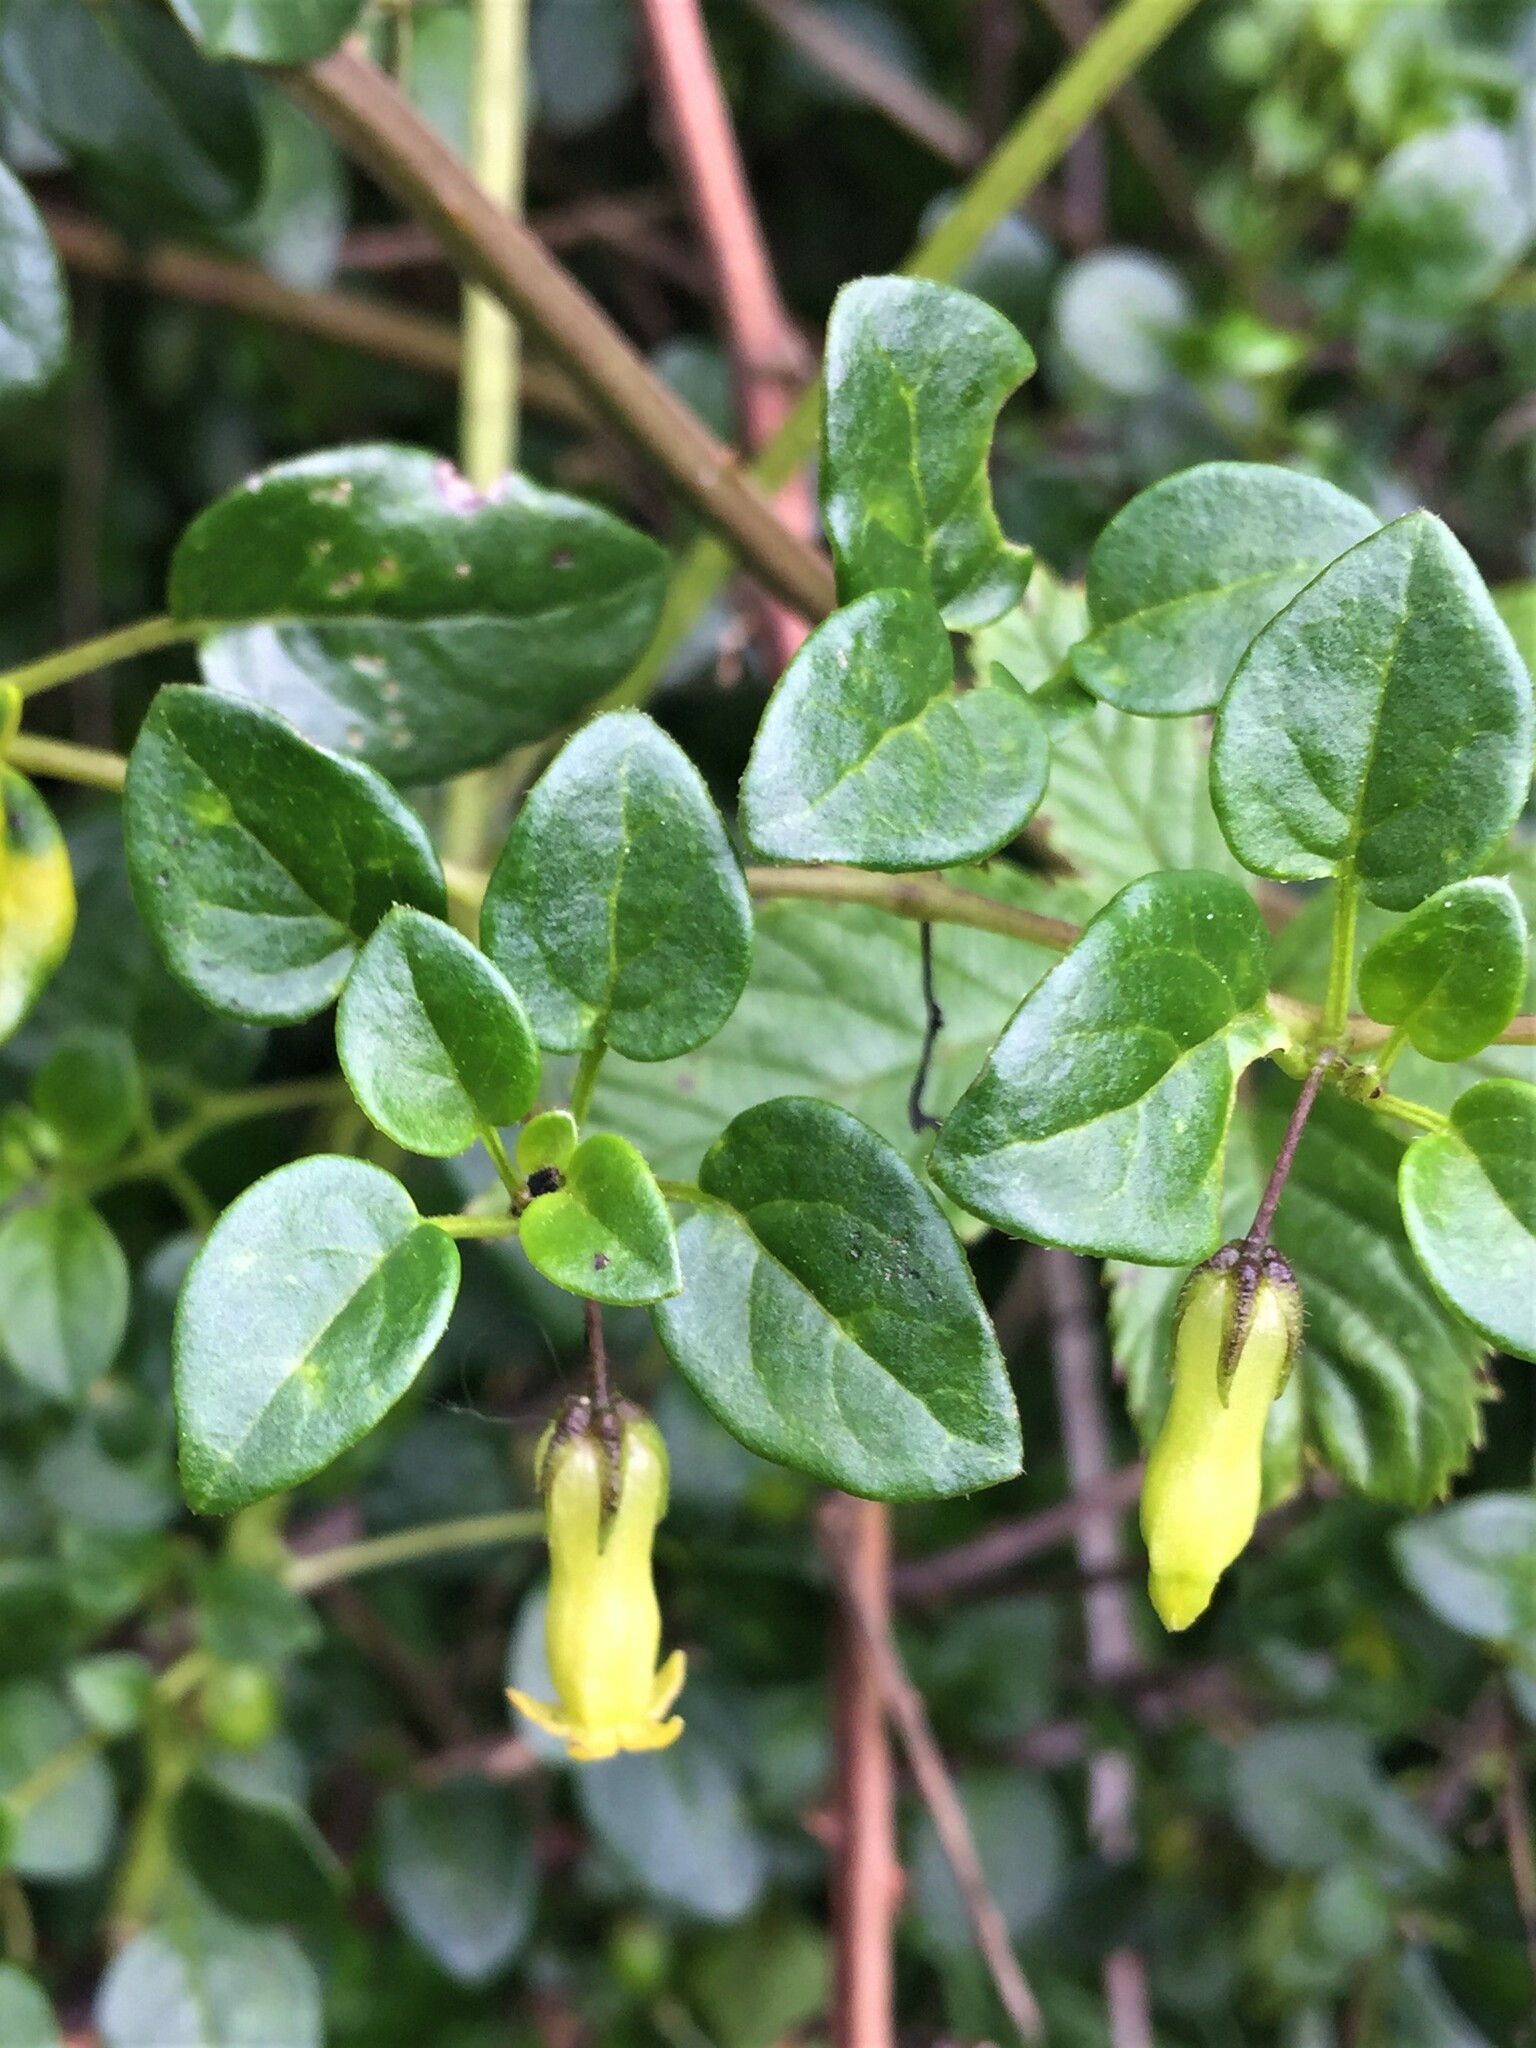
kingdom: Plantae
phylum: Tracheophyta
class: Magnoliopsida
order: Solanales
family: Solanaceae
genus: Salpichroa
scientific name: Salpichroa tristis
